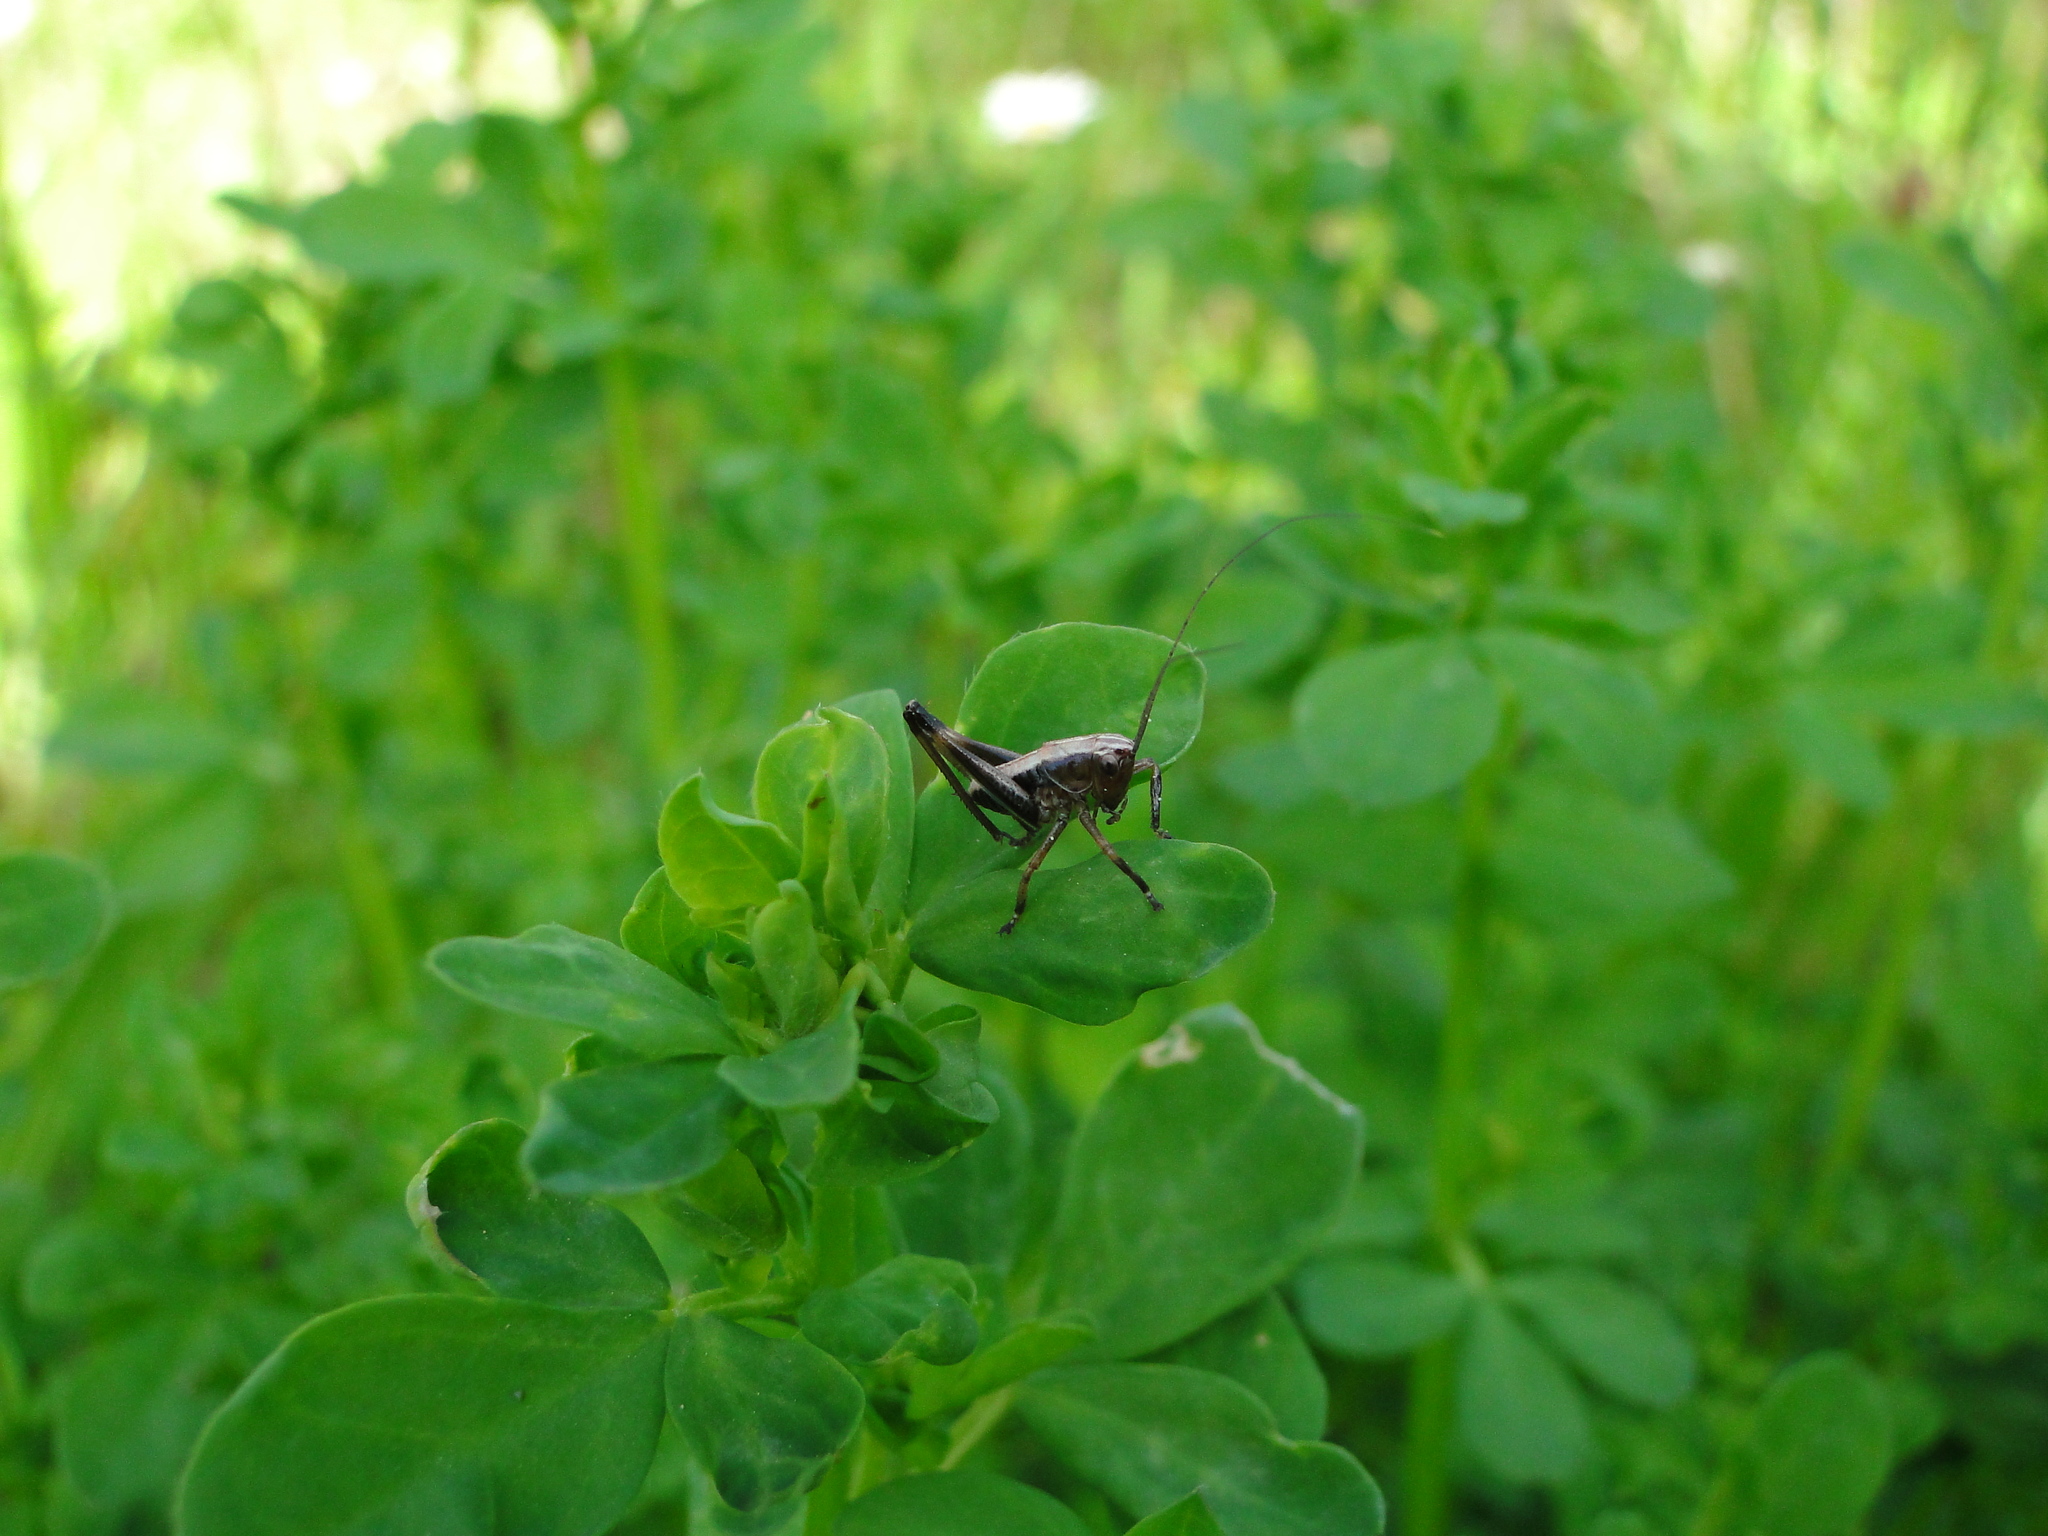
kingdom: Animalia
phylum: Arthropoda
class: Insecta
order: Orthoptera
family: Tettigoniidae
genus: Pholidoptera
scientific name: Pholidoptera griseoaptera
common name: Dark bush-cricket
